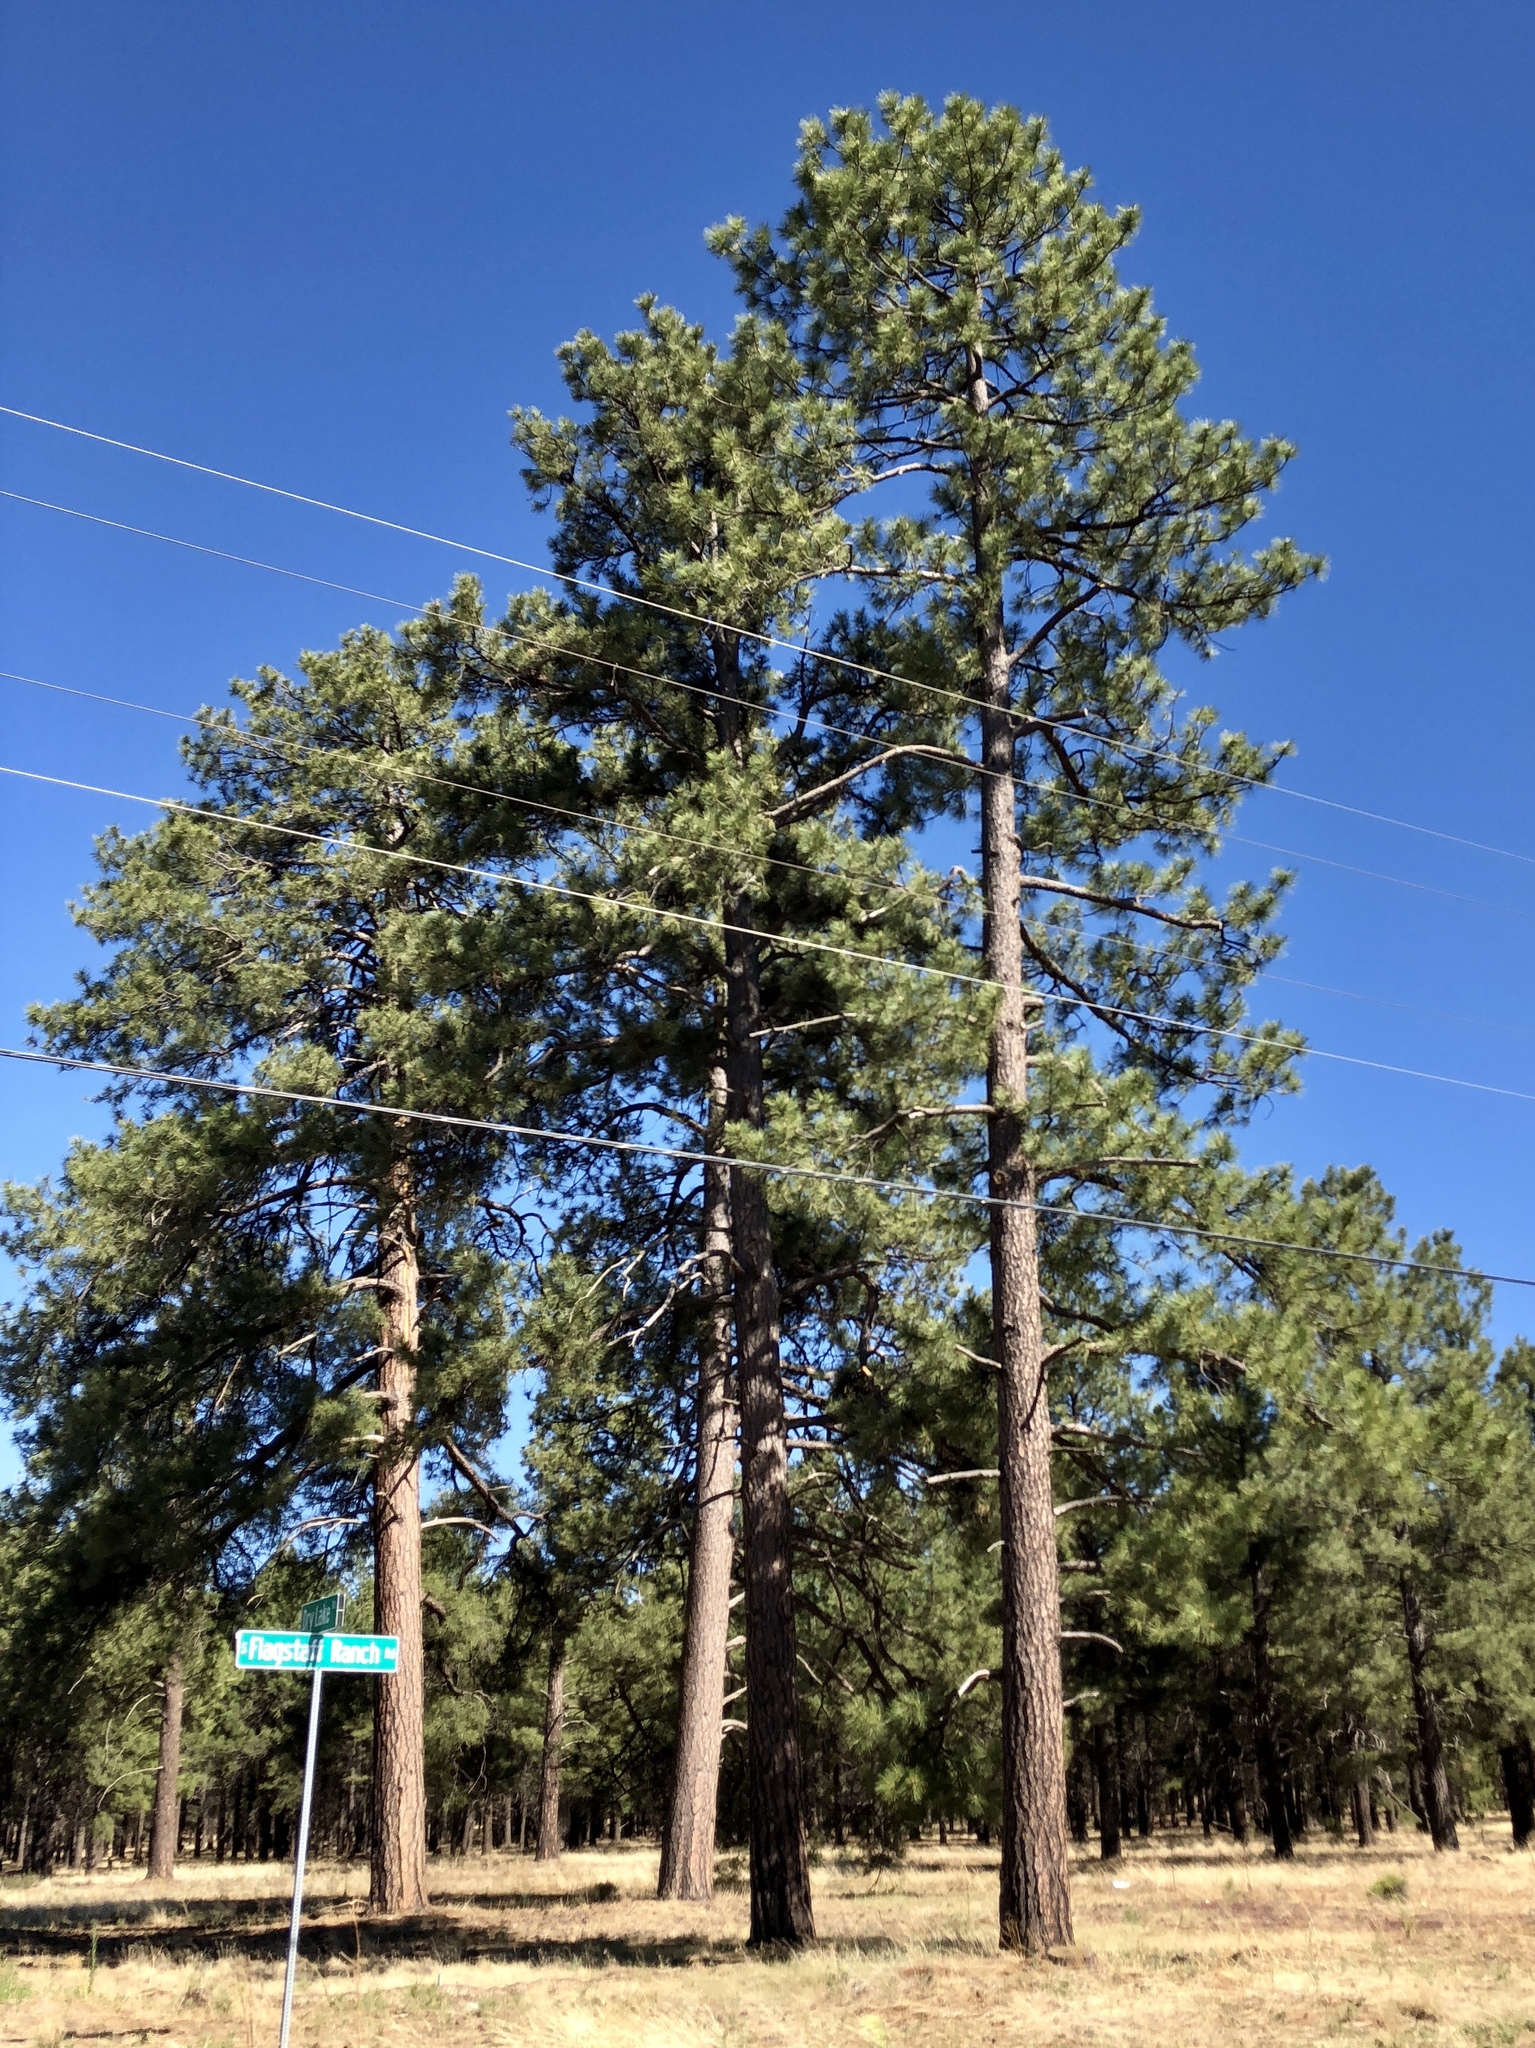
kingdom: Plantae
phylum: Tracheophyta
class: Pinopsida
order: Pinales
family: Pinaceae
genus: Pinus
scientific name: Pinus ponderosa
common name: Western yellow-pine
